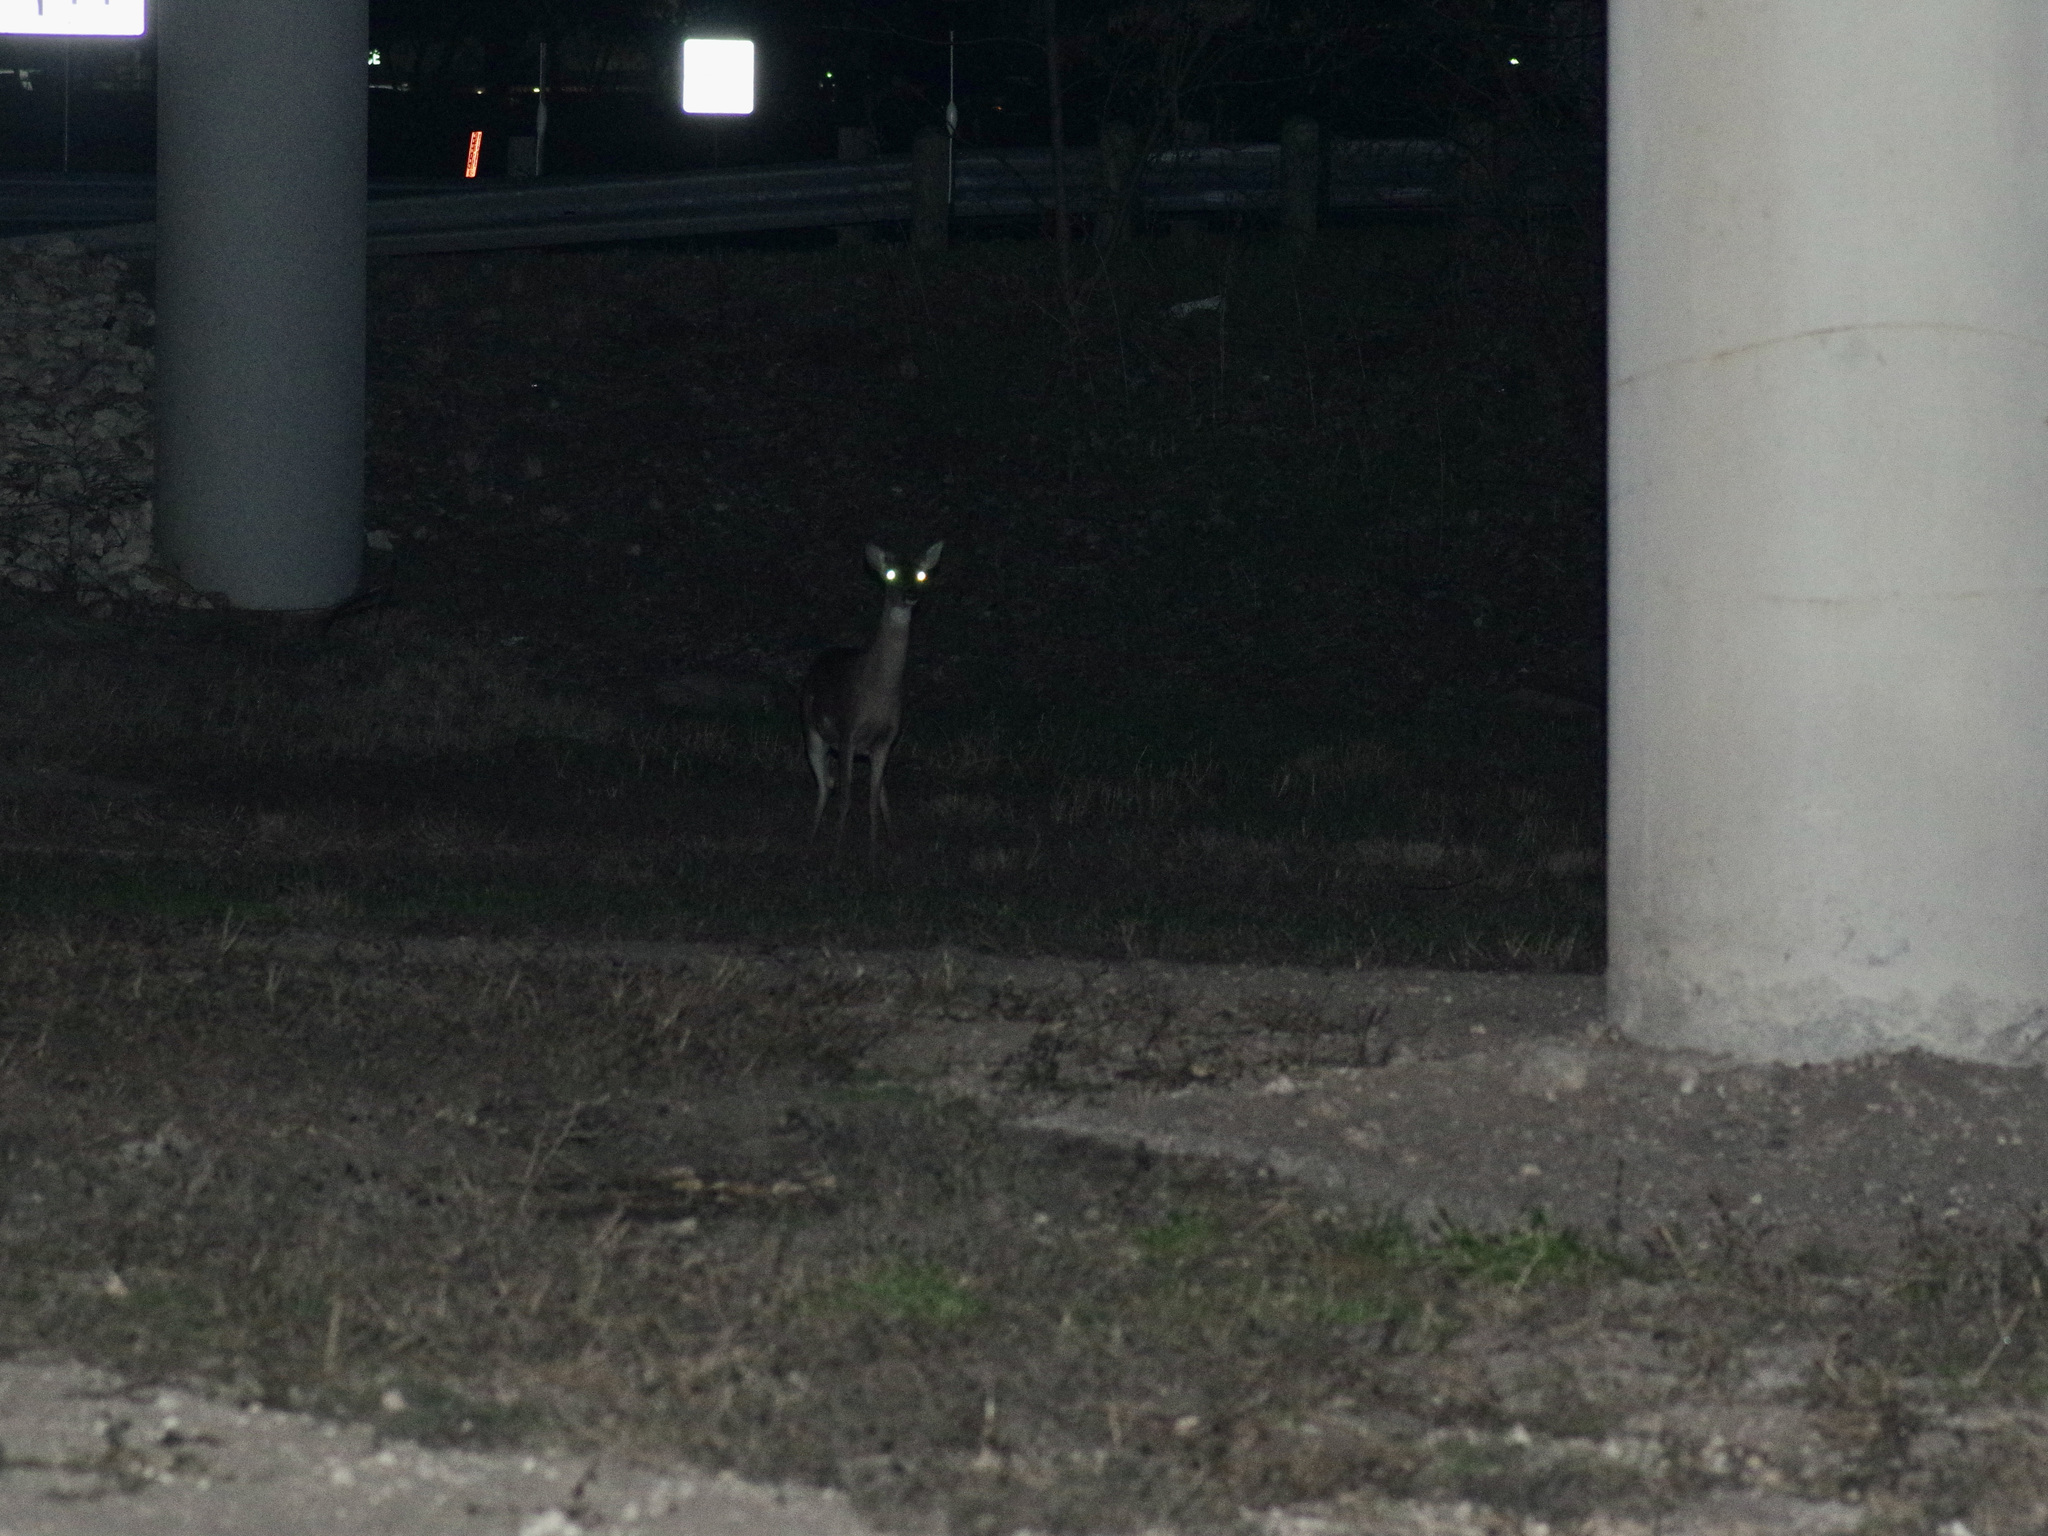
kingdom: Animalia
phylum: Chordata
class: Mammalia
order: Artiodactyla
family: Cervidae
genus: Odocoileus
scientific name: Odocoileus virginianus
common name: White-tailed deer
